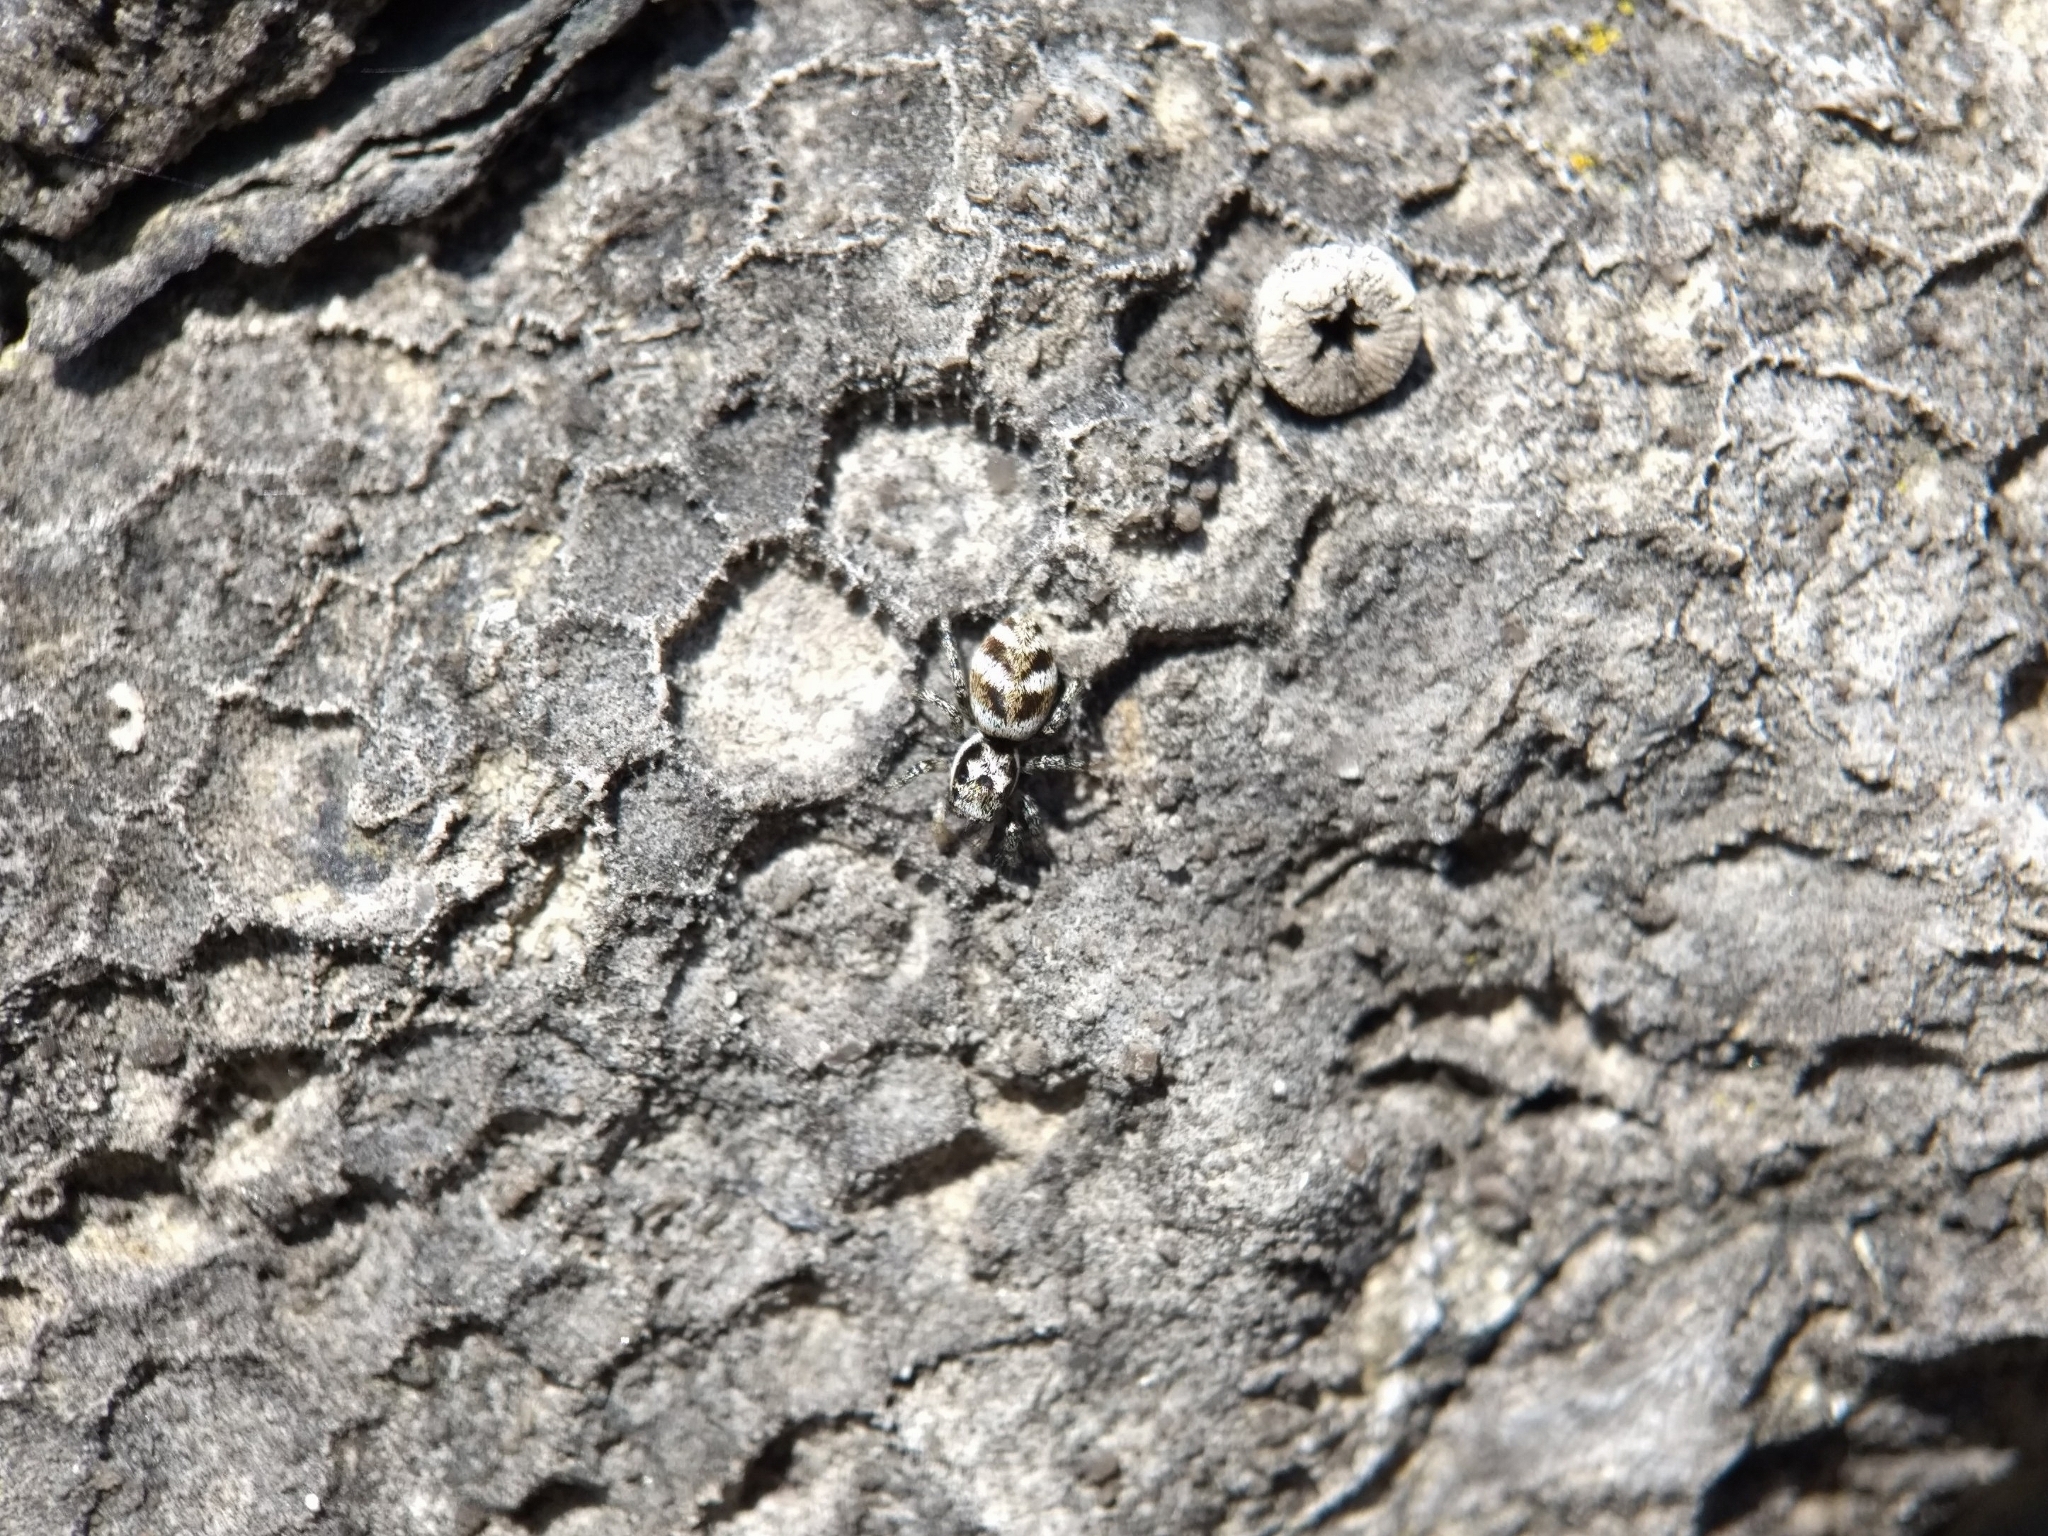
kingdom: Animalia
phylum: Arthropoda
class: Arachnida
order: Araneae
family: Salticidae
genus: Salticus
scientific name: Salticus scenicus
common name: Zebra jumper
